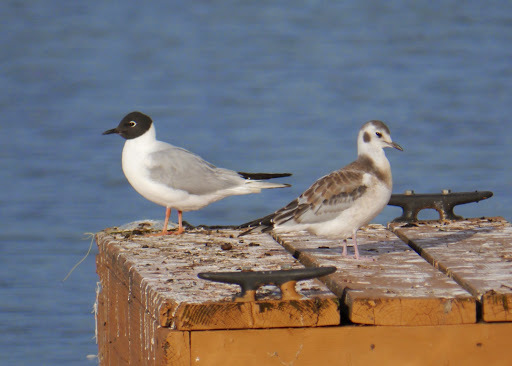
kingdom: Animalia
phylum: Chordata
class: Aves
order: Charadriiformes
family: Laridae
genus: Chroicocephalus
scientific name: Chroicocephalus philadelphia
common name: Bonaparte's gull
